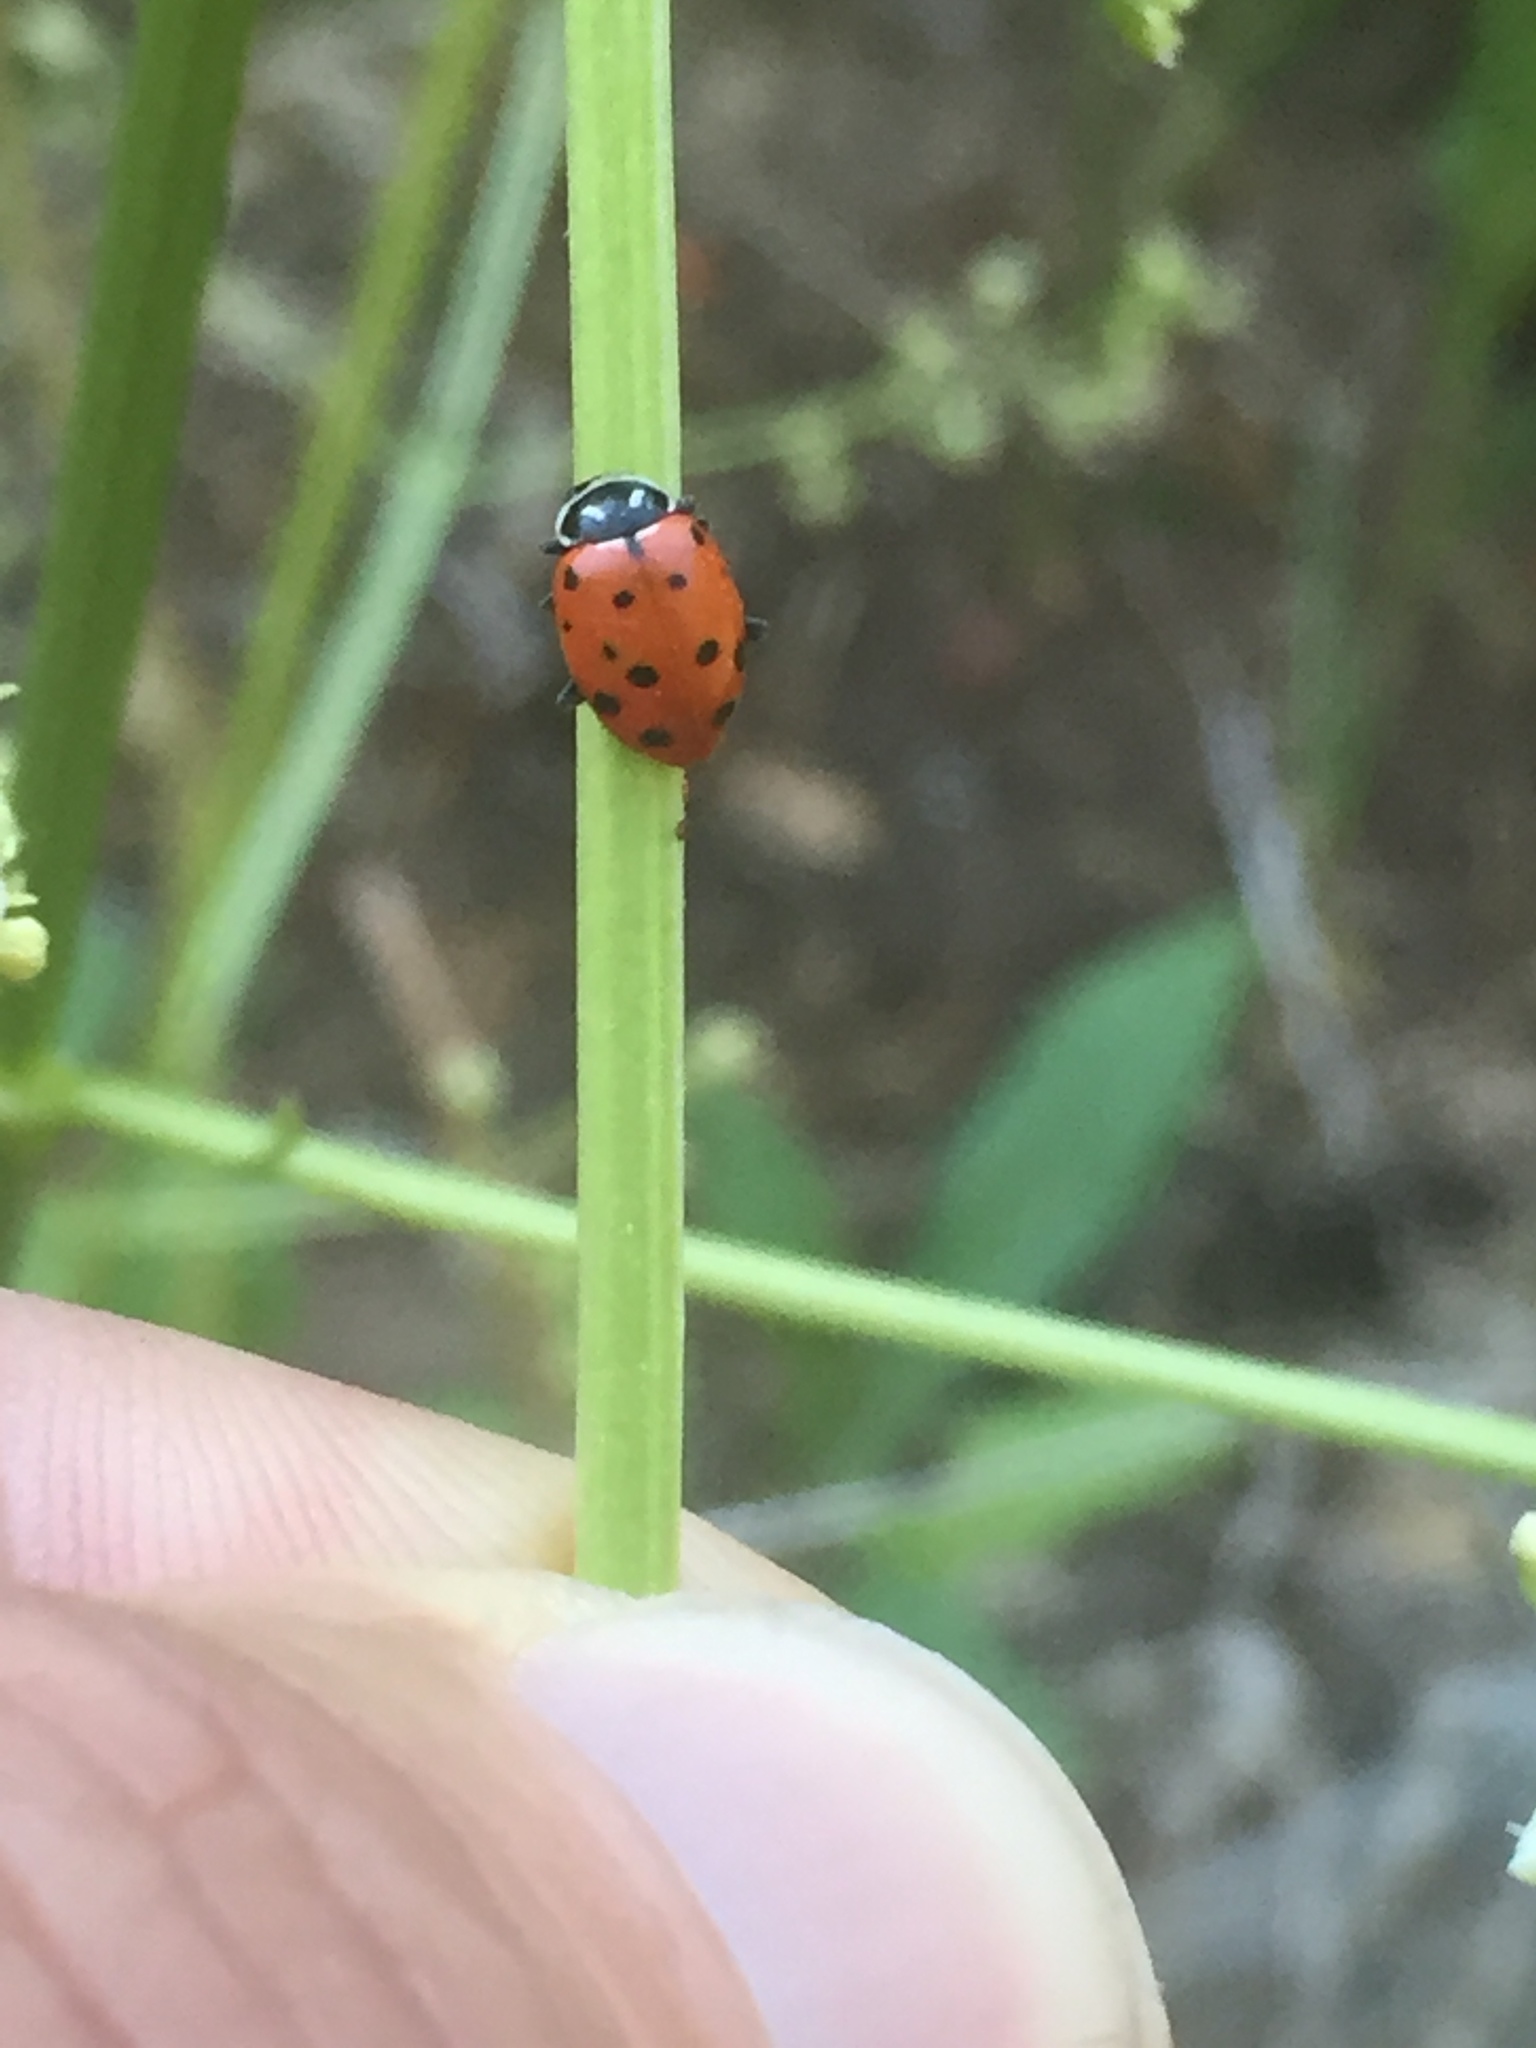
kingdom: Animalia
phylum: Arthropoda
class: Insecta
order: Coleoptera
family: Coccinellidae
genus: Hippodamia
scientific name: Hippodamia convergens
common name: Convergent lady beetle
